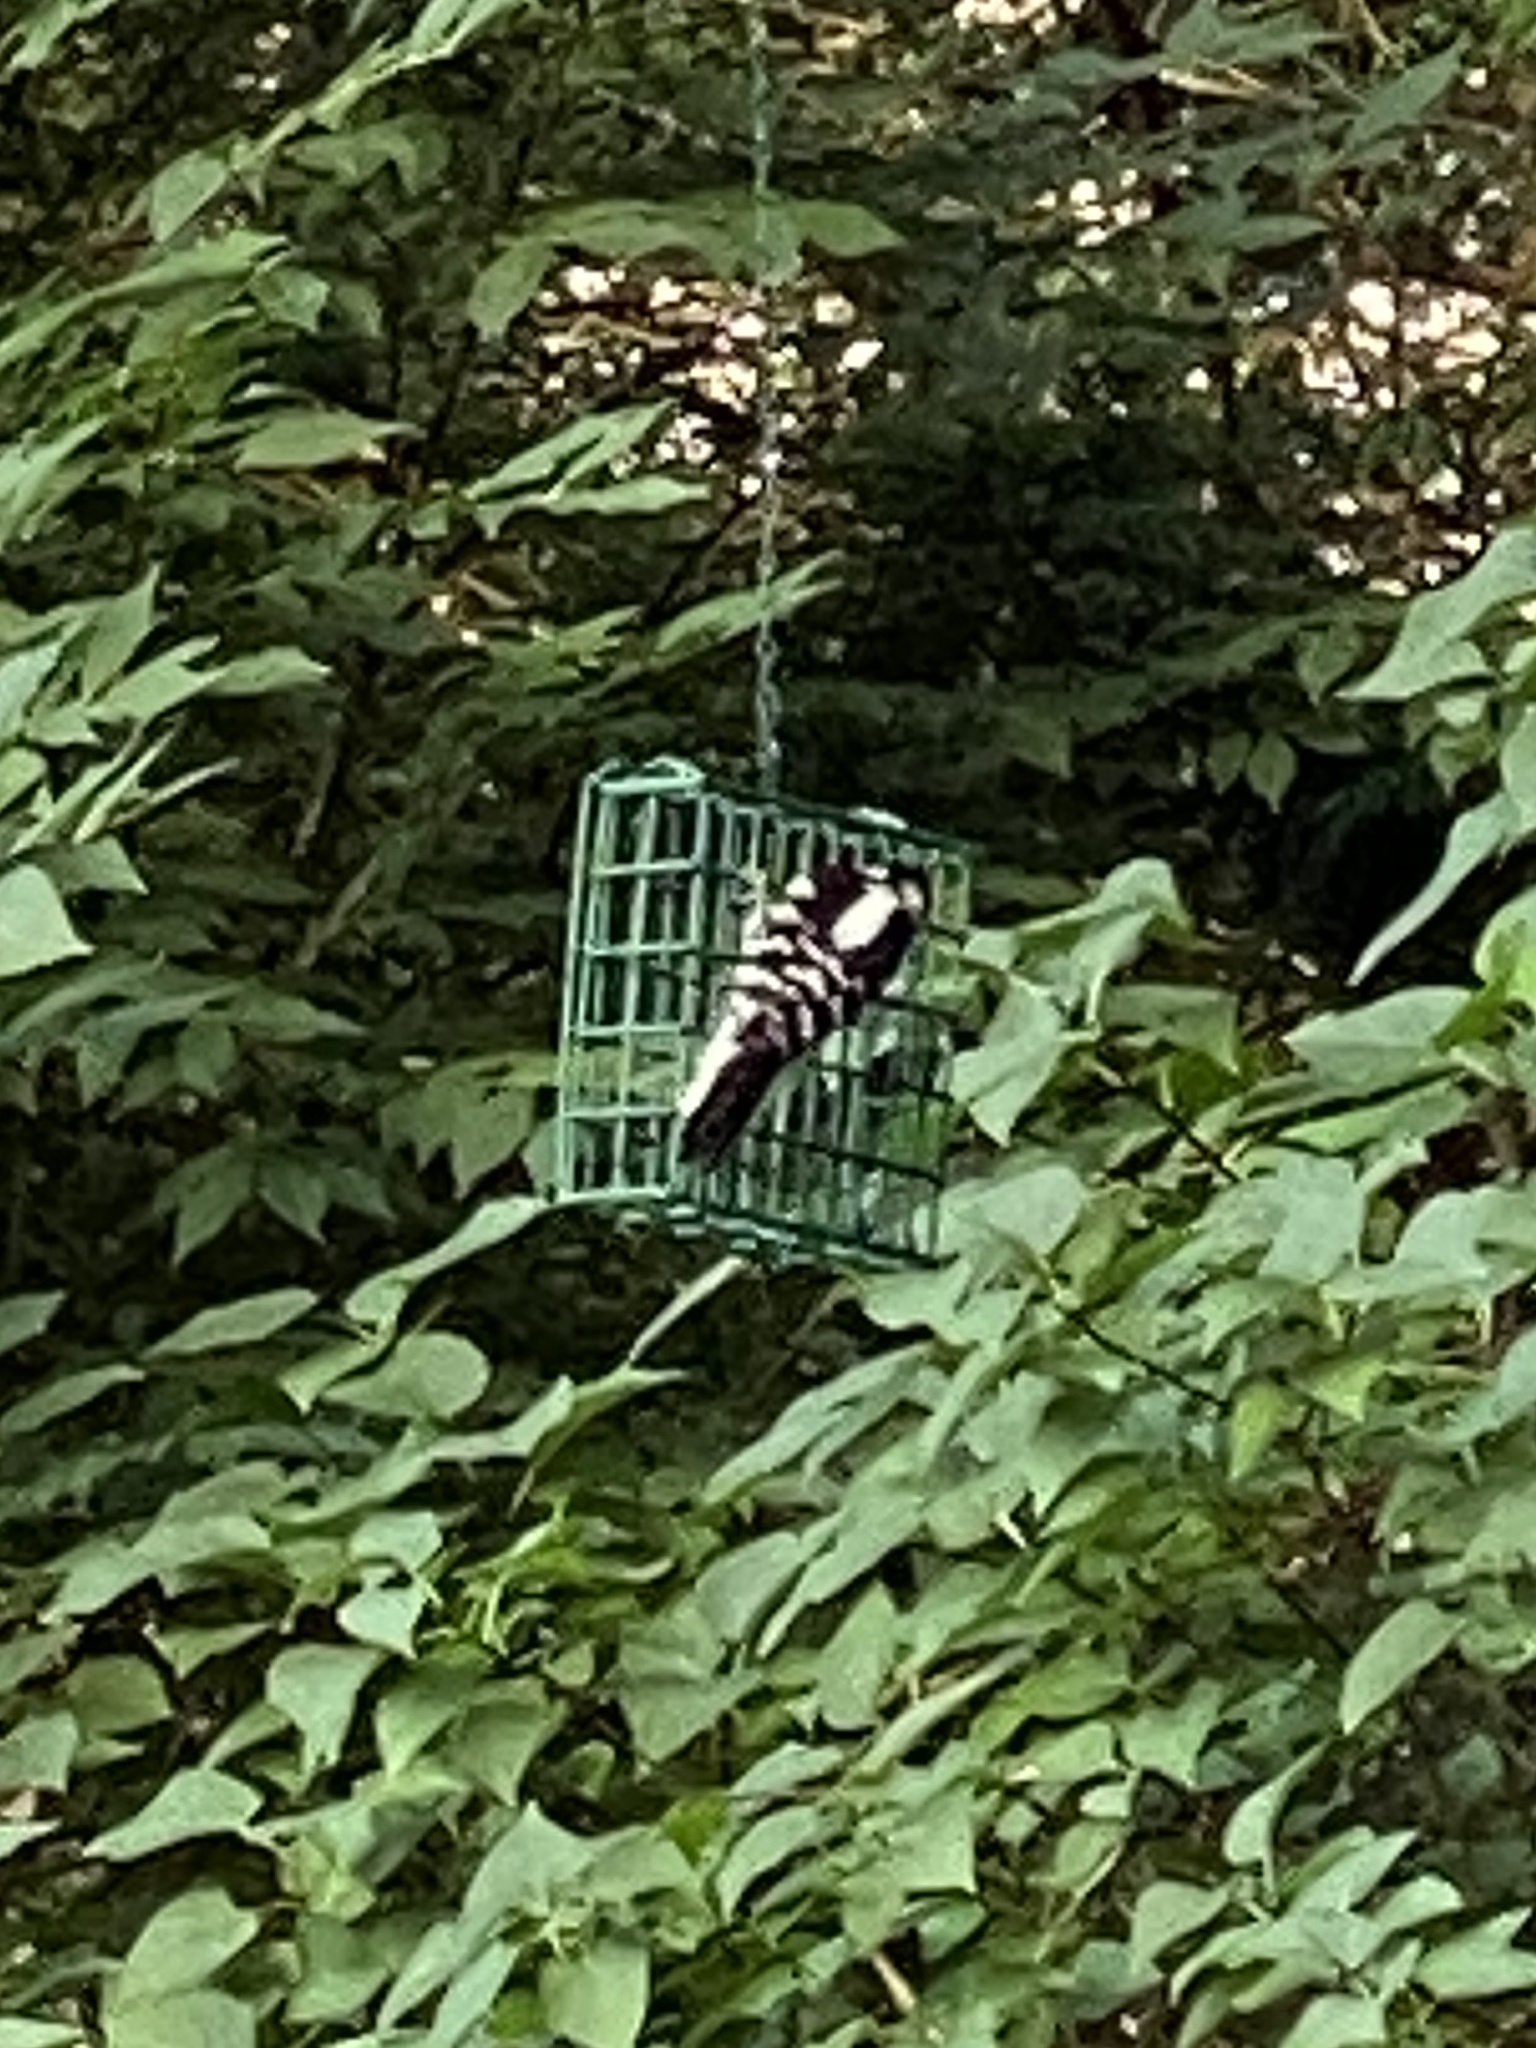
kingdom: Animalia
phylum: Chordata
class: Aves
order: Piciformes
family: Picidae
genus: Dryobates
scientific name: Dryobates pubescens
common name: Downy woodpecker
